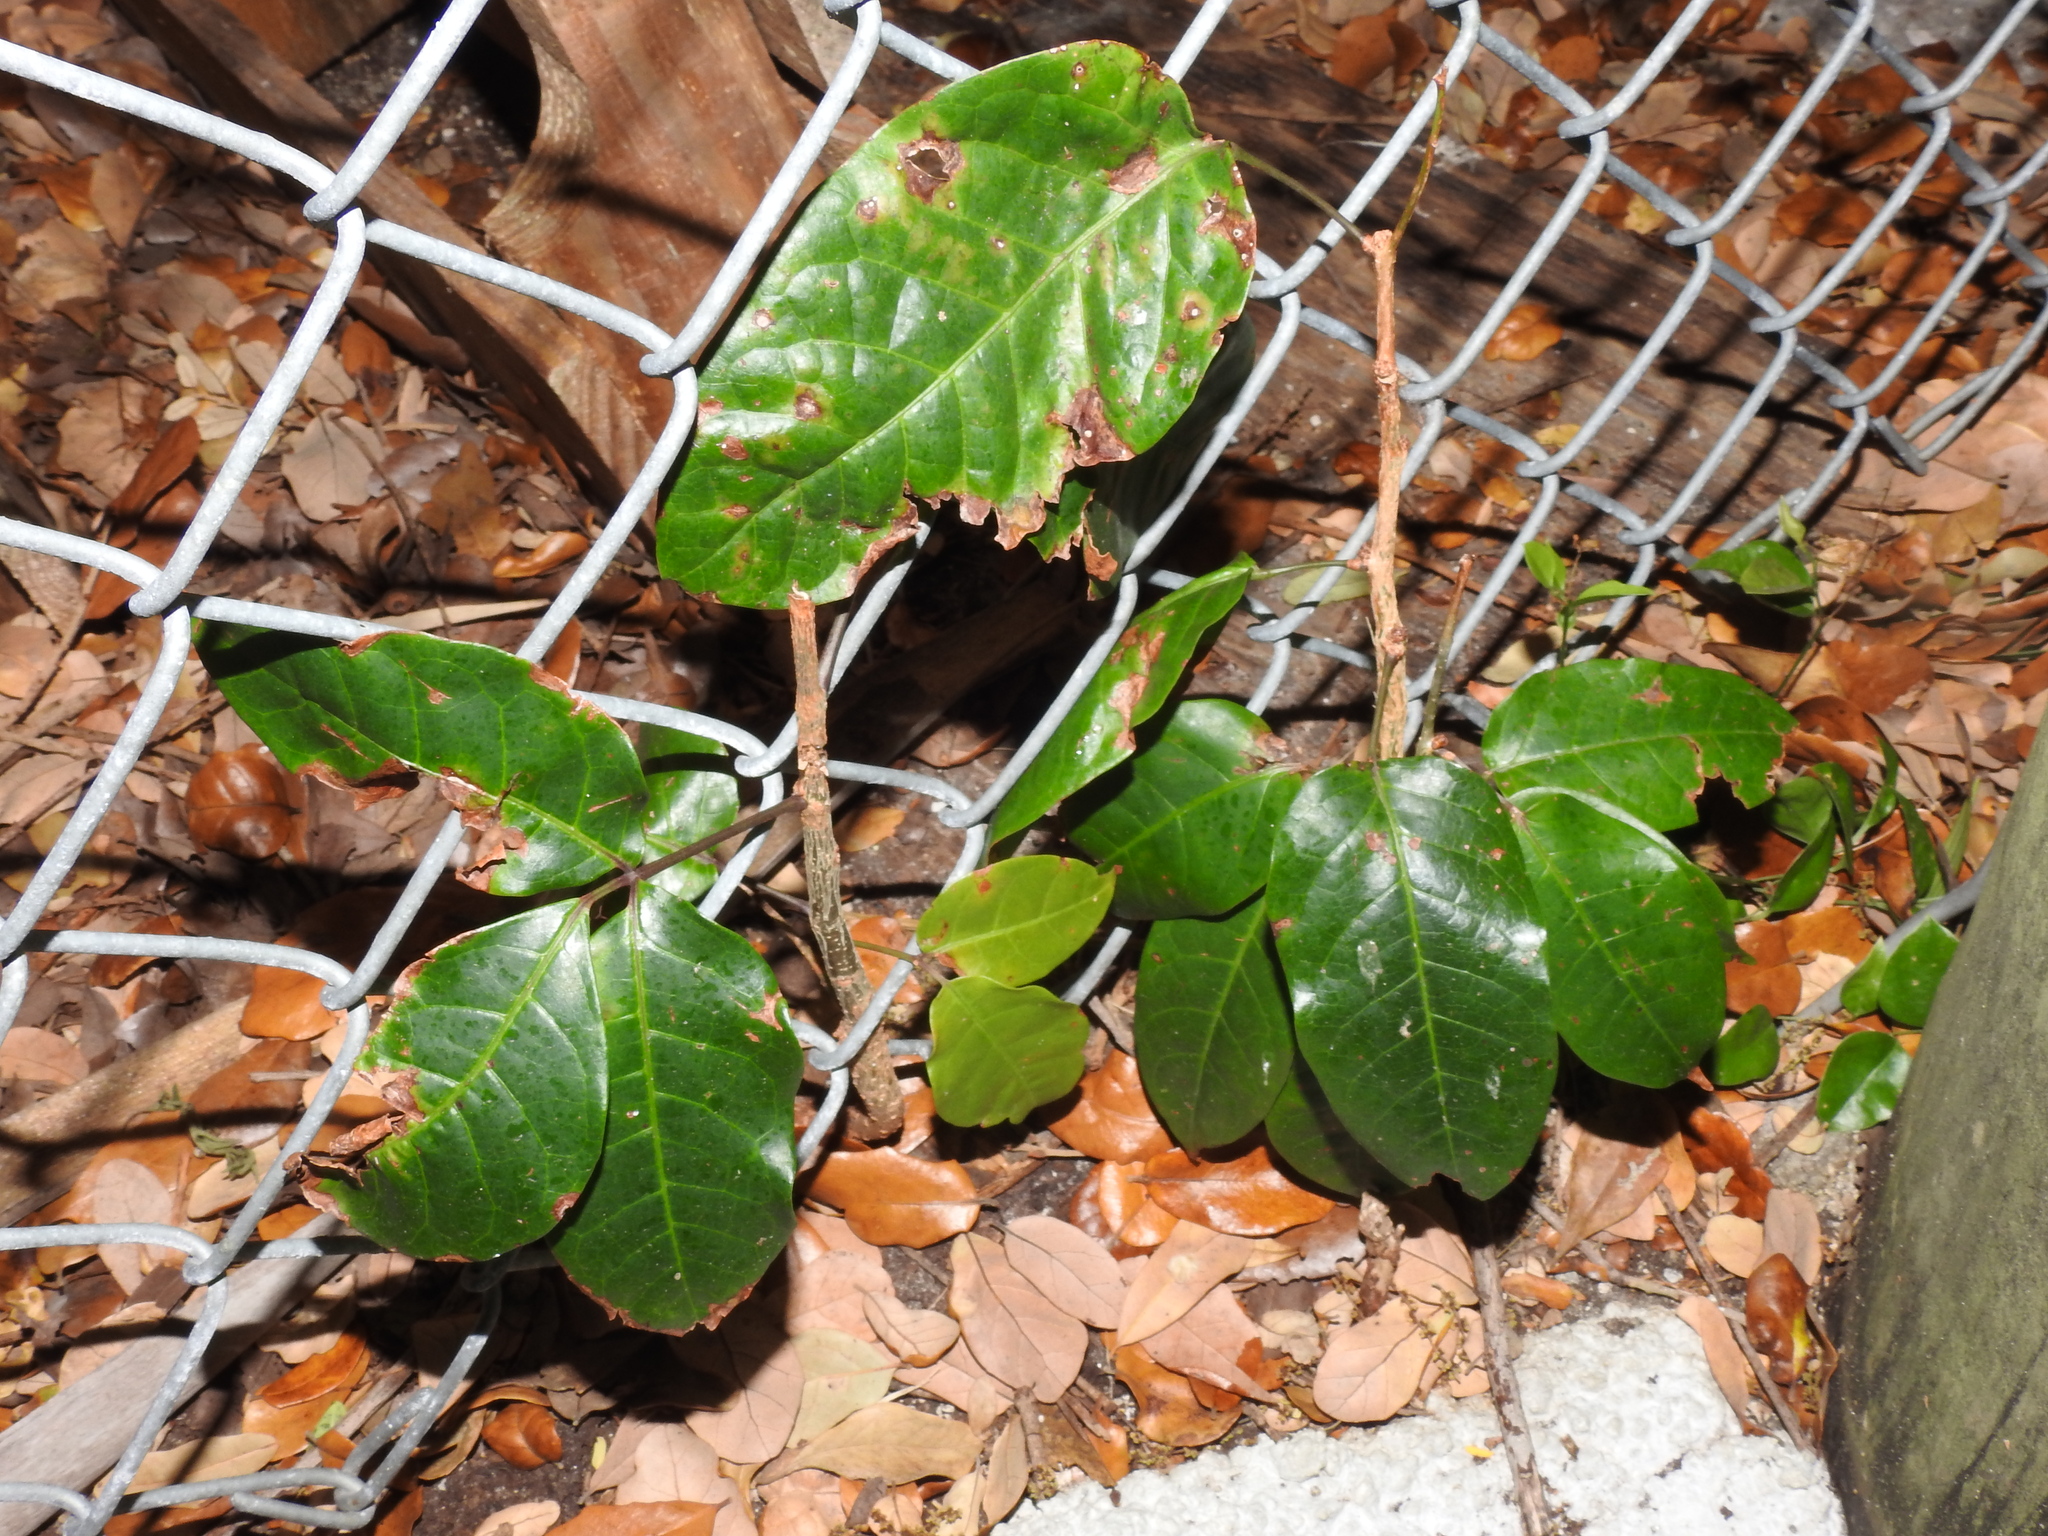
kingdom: Plantae
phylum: Tracheophyta
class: Magnoliopsida
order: Sapindales
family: Burseraceae
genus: Bursera
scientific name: Bursera simaruba
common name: Turpentine tree
